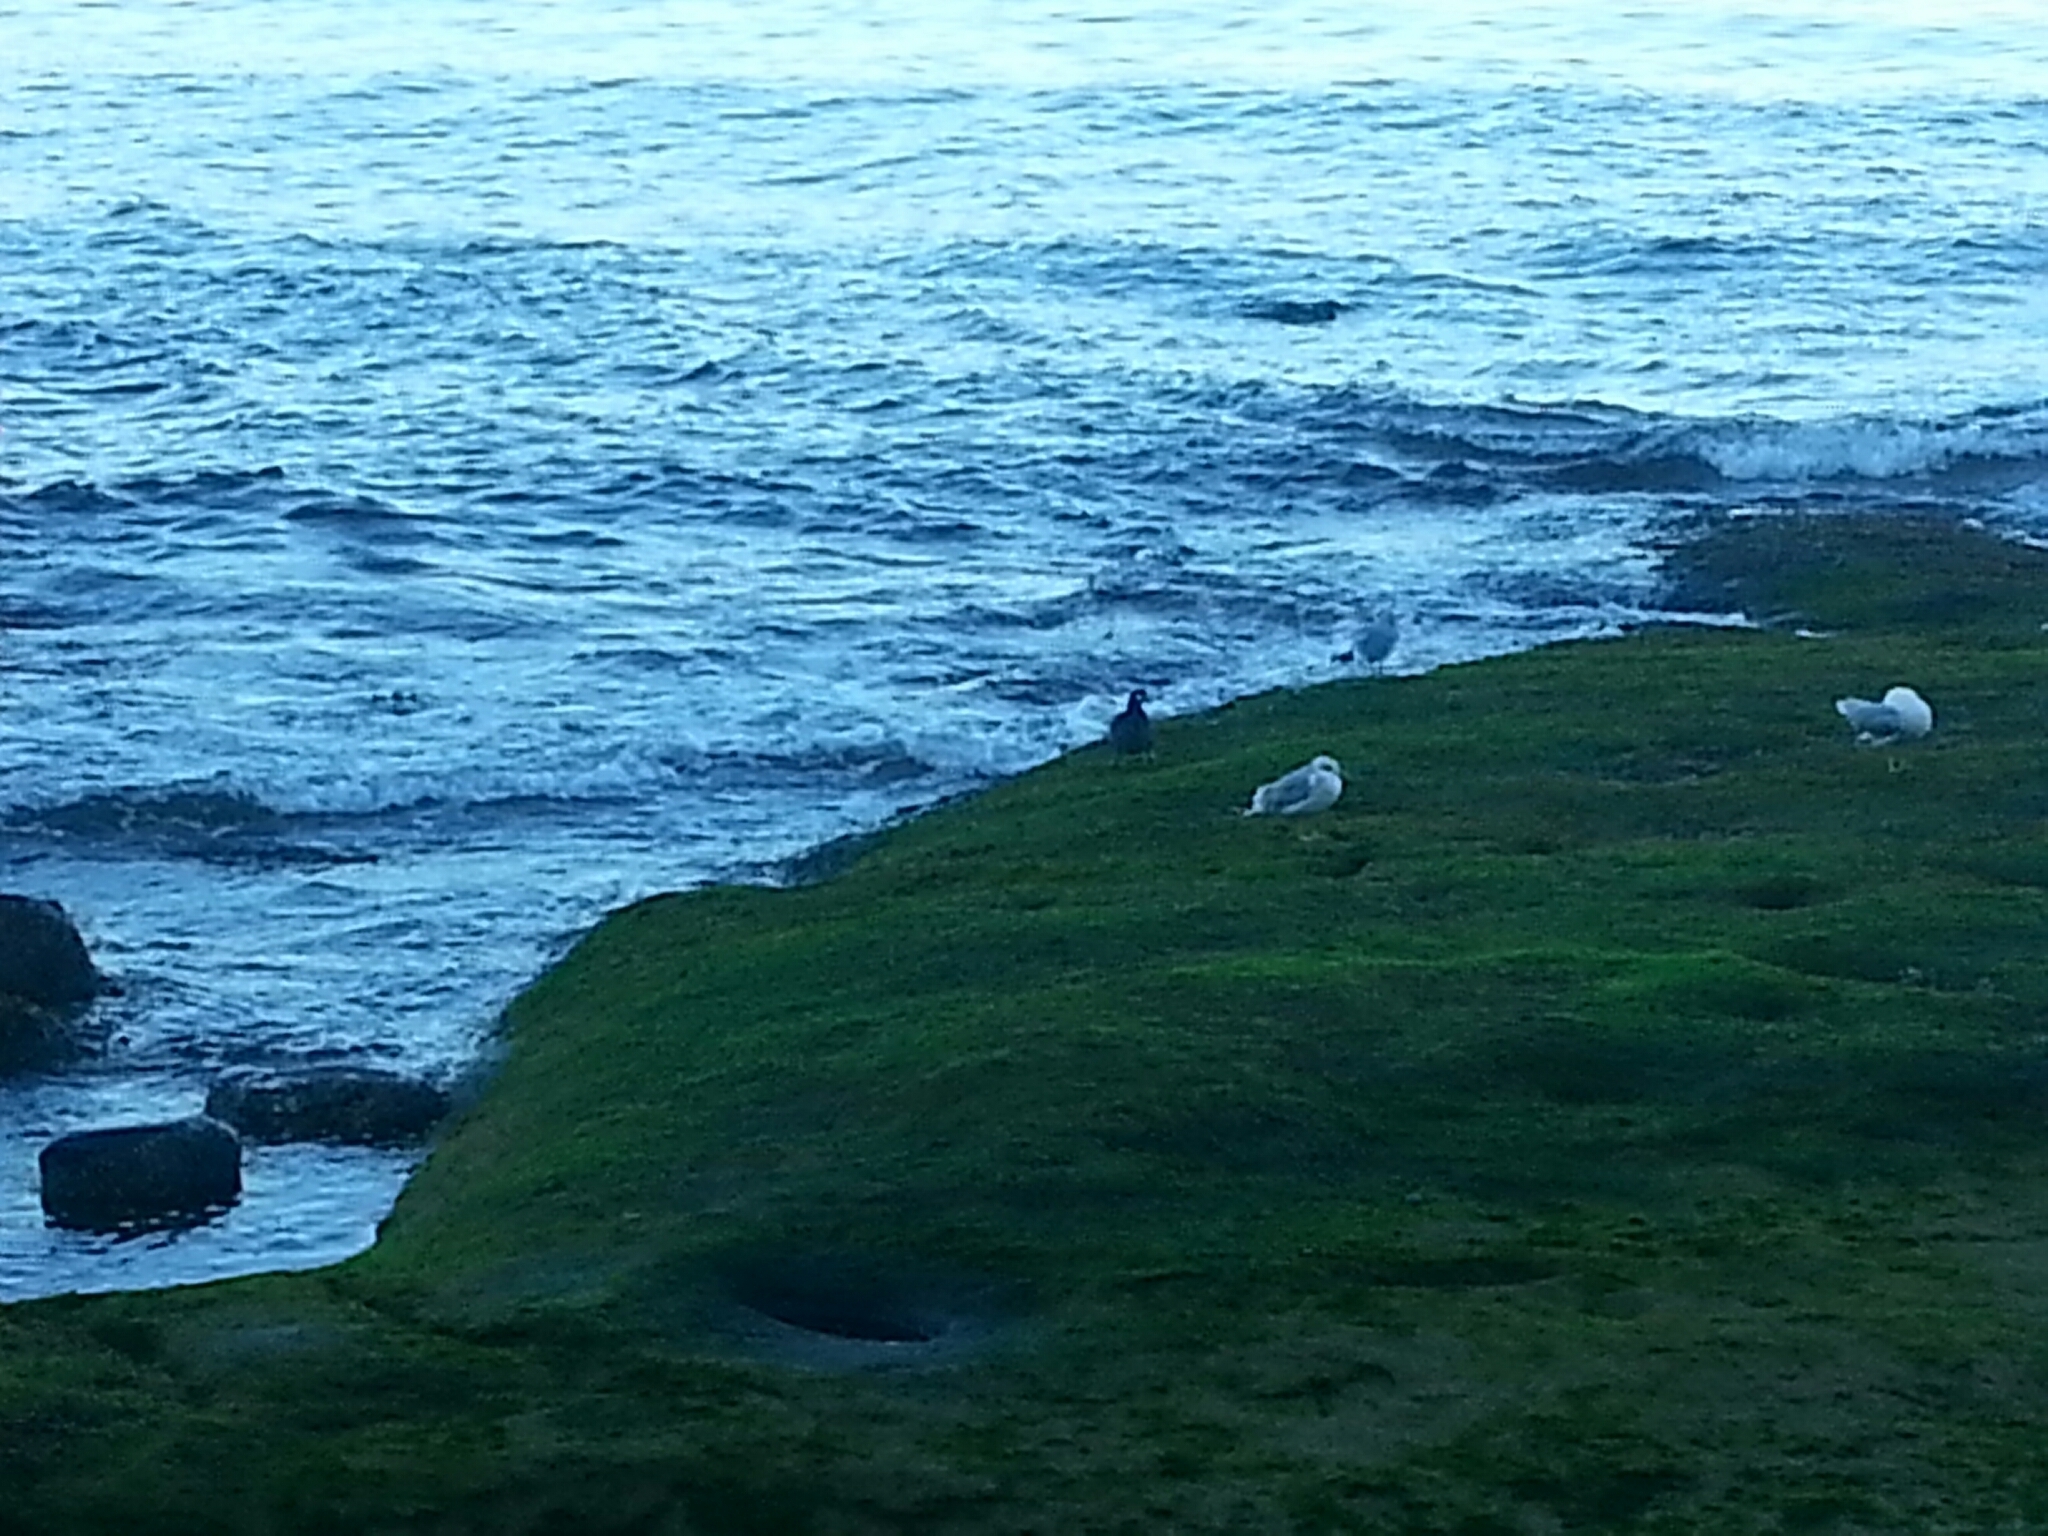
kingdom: Animalia
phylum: Chordata
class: Aves
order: Anseriformes
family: Anatidae
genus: Histrionicus
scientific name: Histrionicus histrionicus
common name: Harlequin duck
